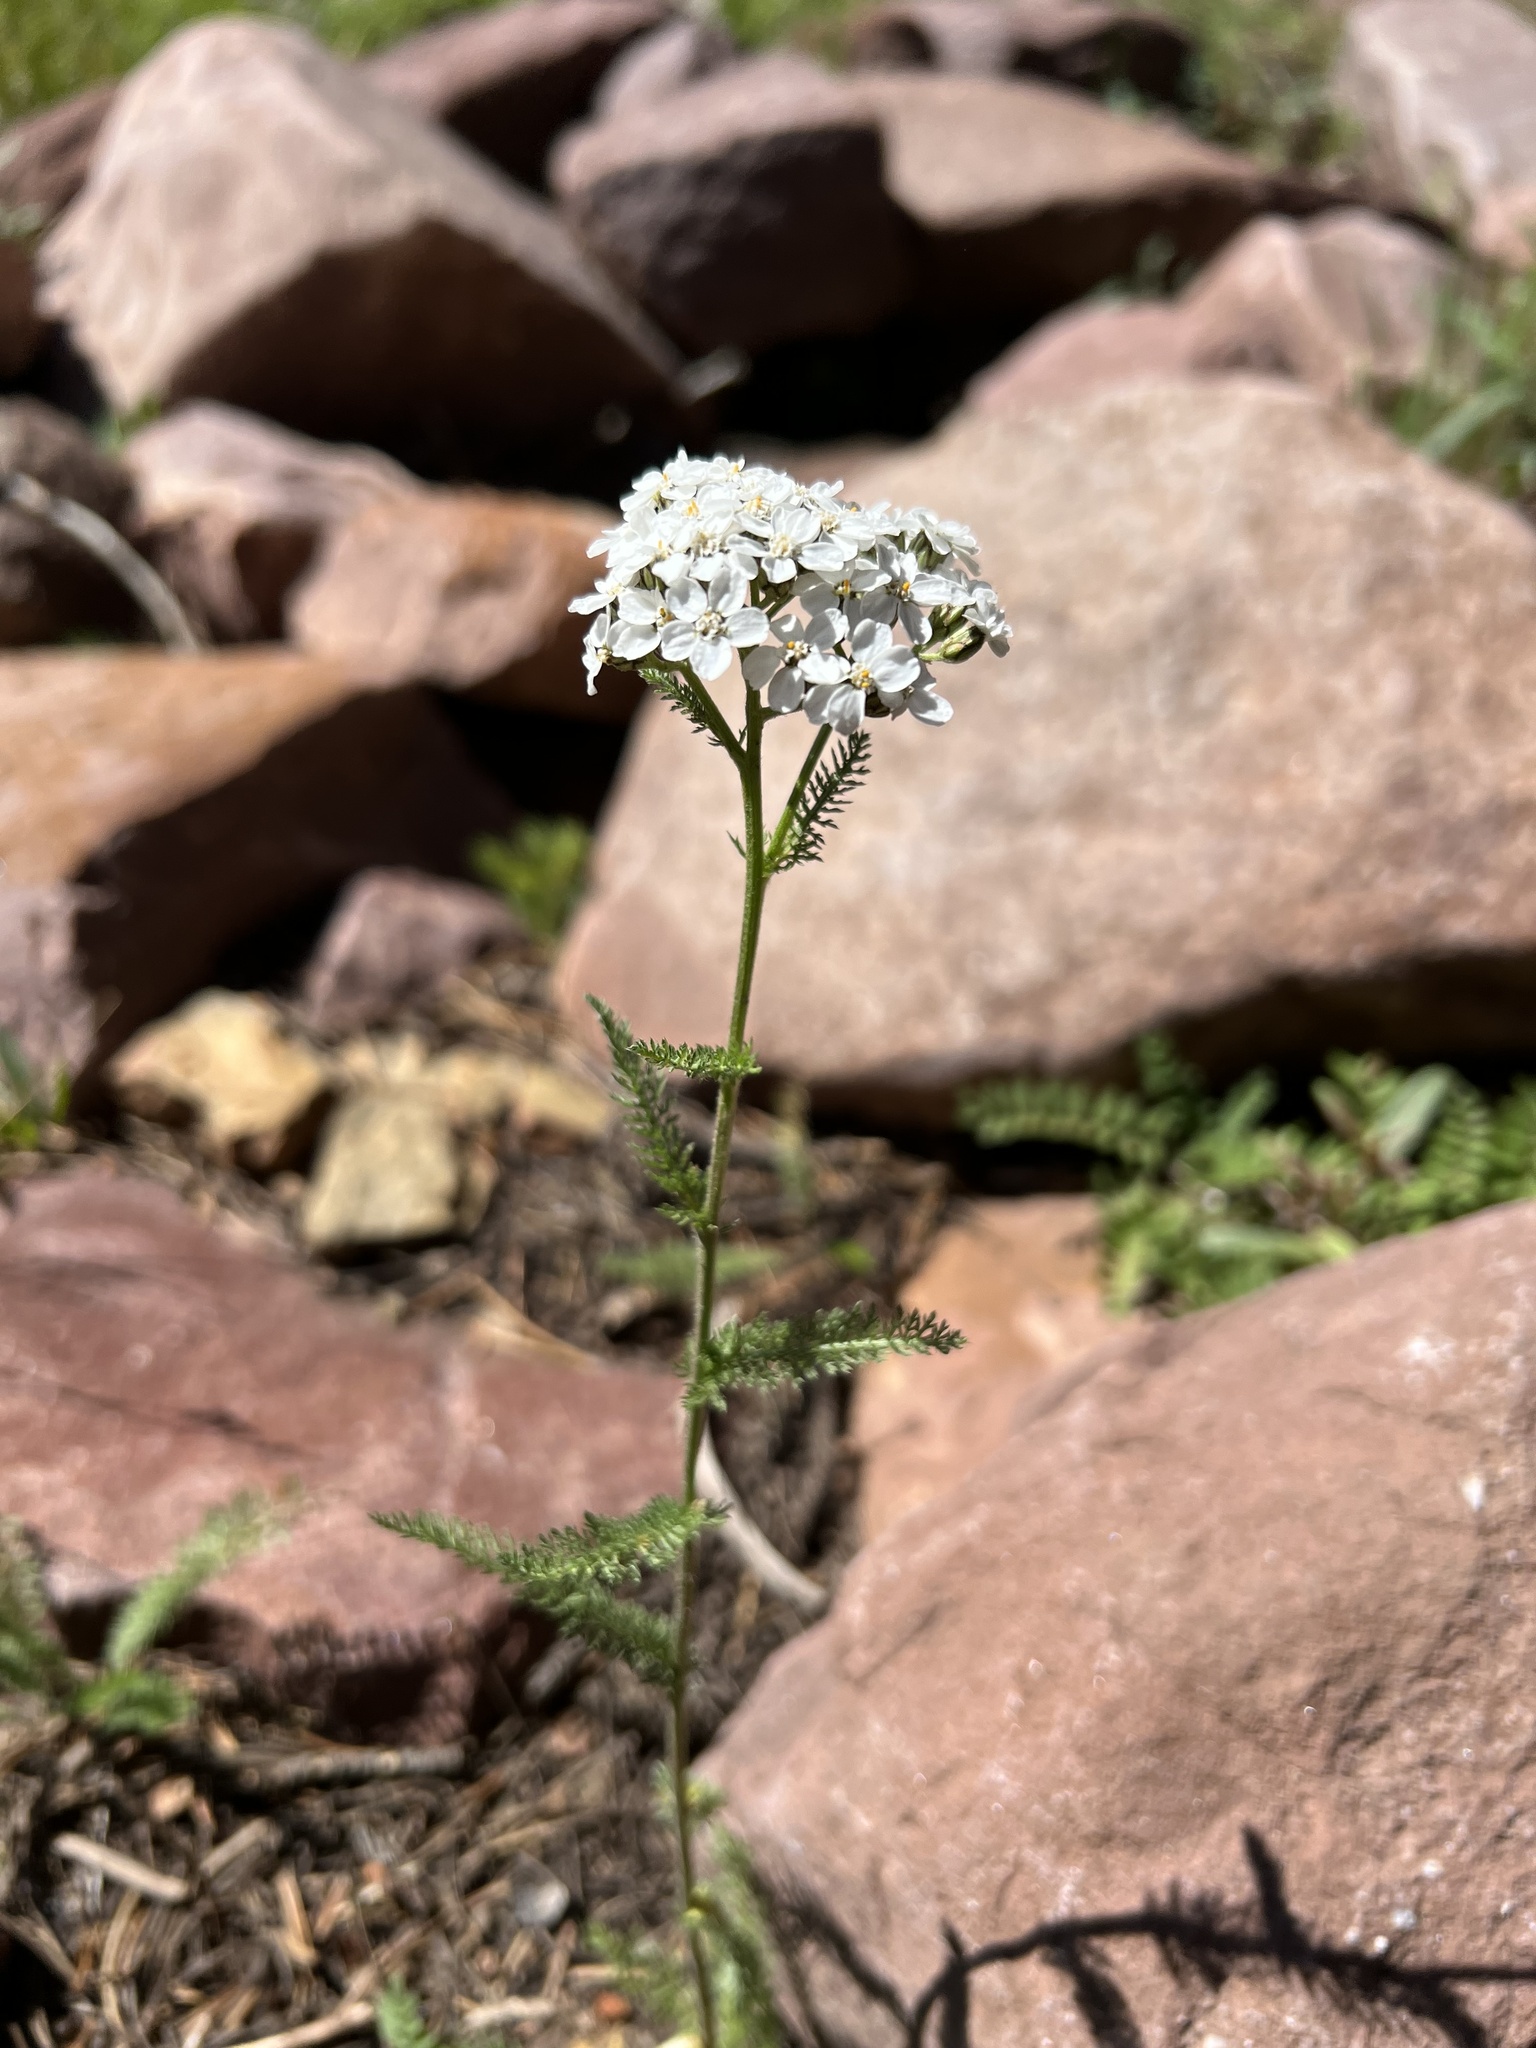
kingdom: Plantae
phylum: Tracheophyta
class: Magnoliopsida
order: Asterales
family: Asteraceae
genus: Achillea
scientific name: Achillea millefolium
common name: Yarrow
